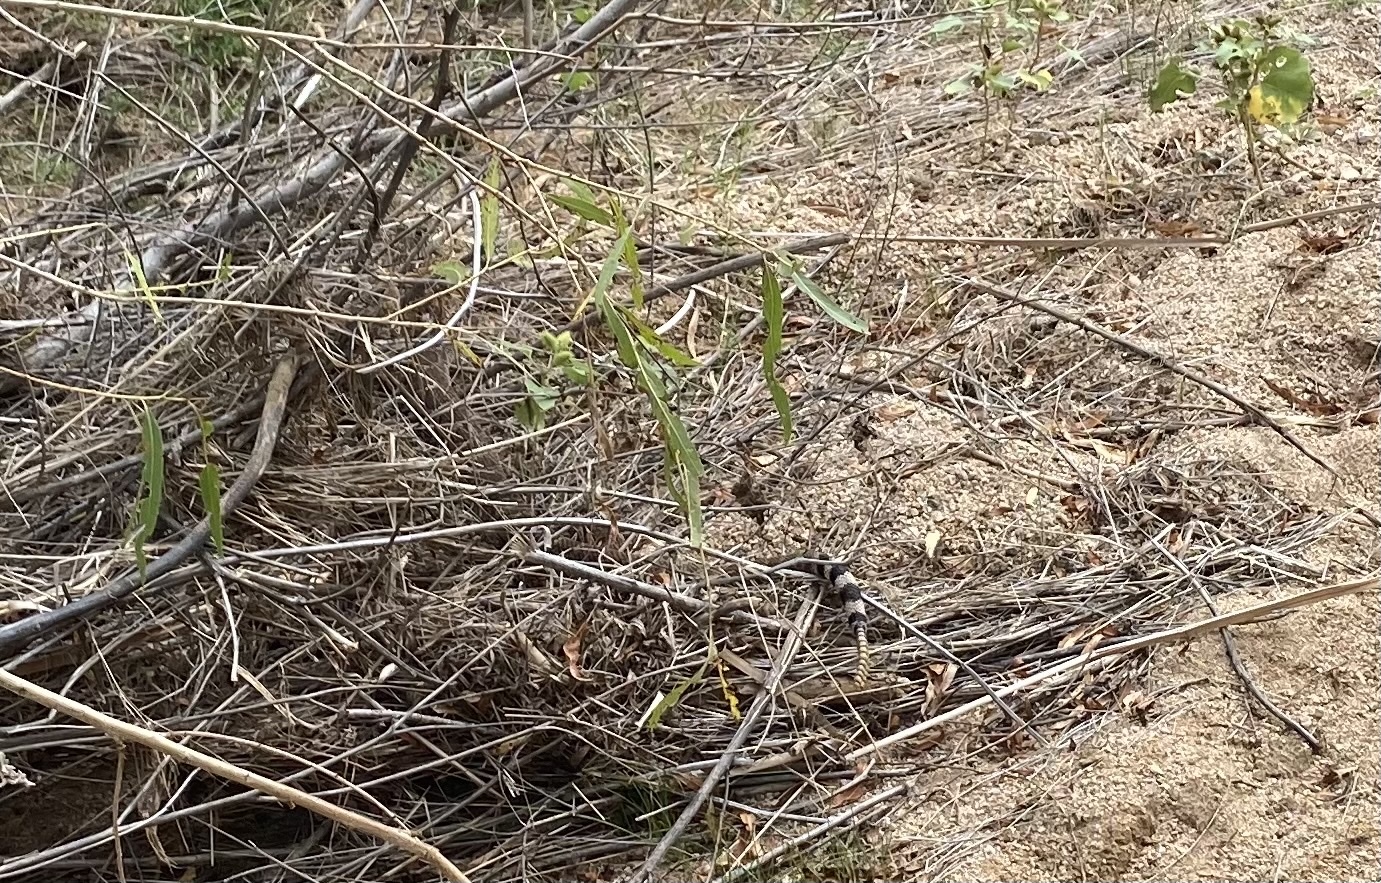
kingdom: Animalia
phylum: Chordata
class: Squamata
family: Viperidae
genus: Crotalus
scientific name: Crotalus atrox
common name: Western diamond-backed rattlesnake
